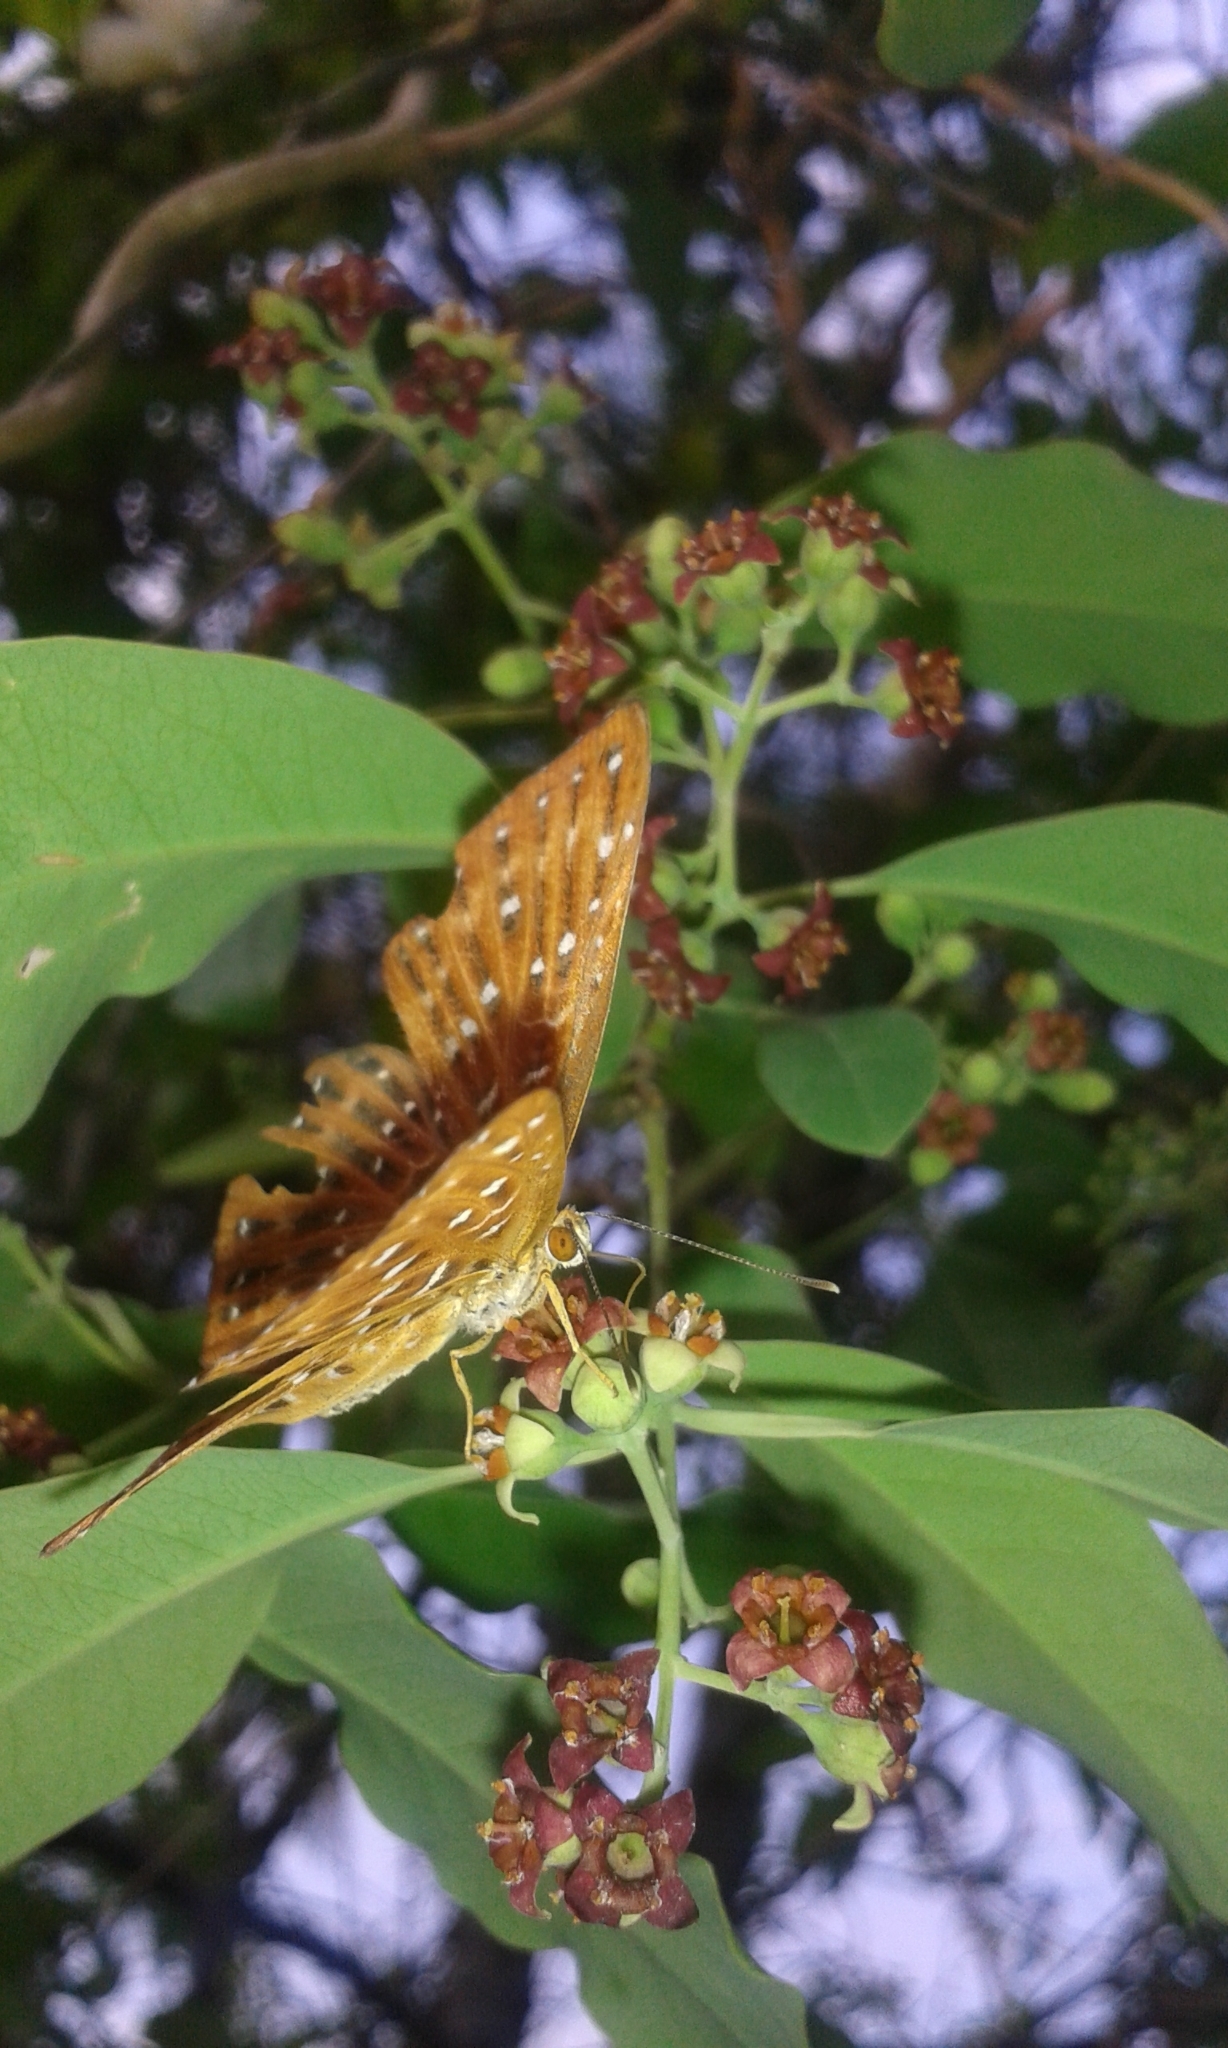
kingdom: Animalia
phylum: Arthropoda
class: Insecta
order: Lepidoptera
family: Riodinidae
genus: Zemeros
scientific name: Zemeros flegyas
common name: Punchinello
